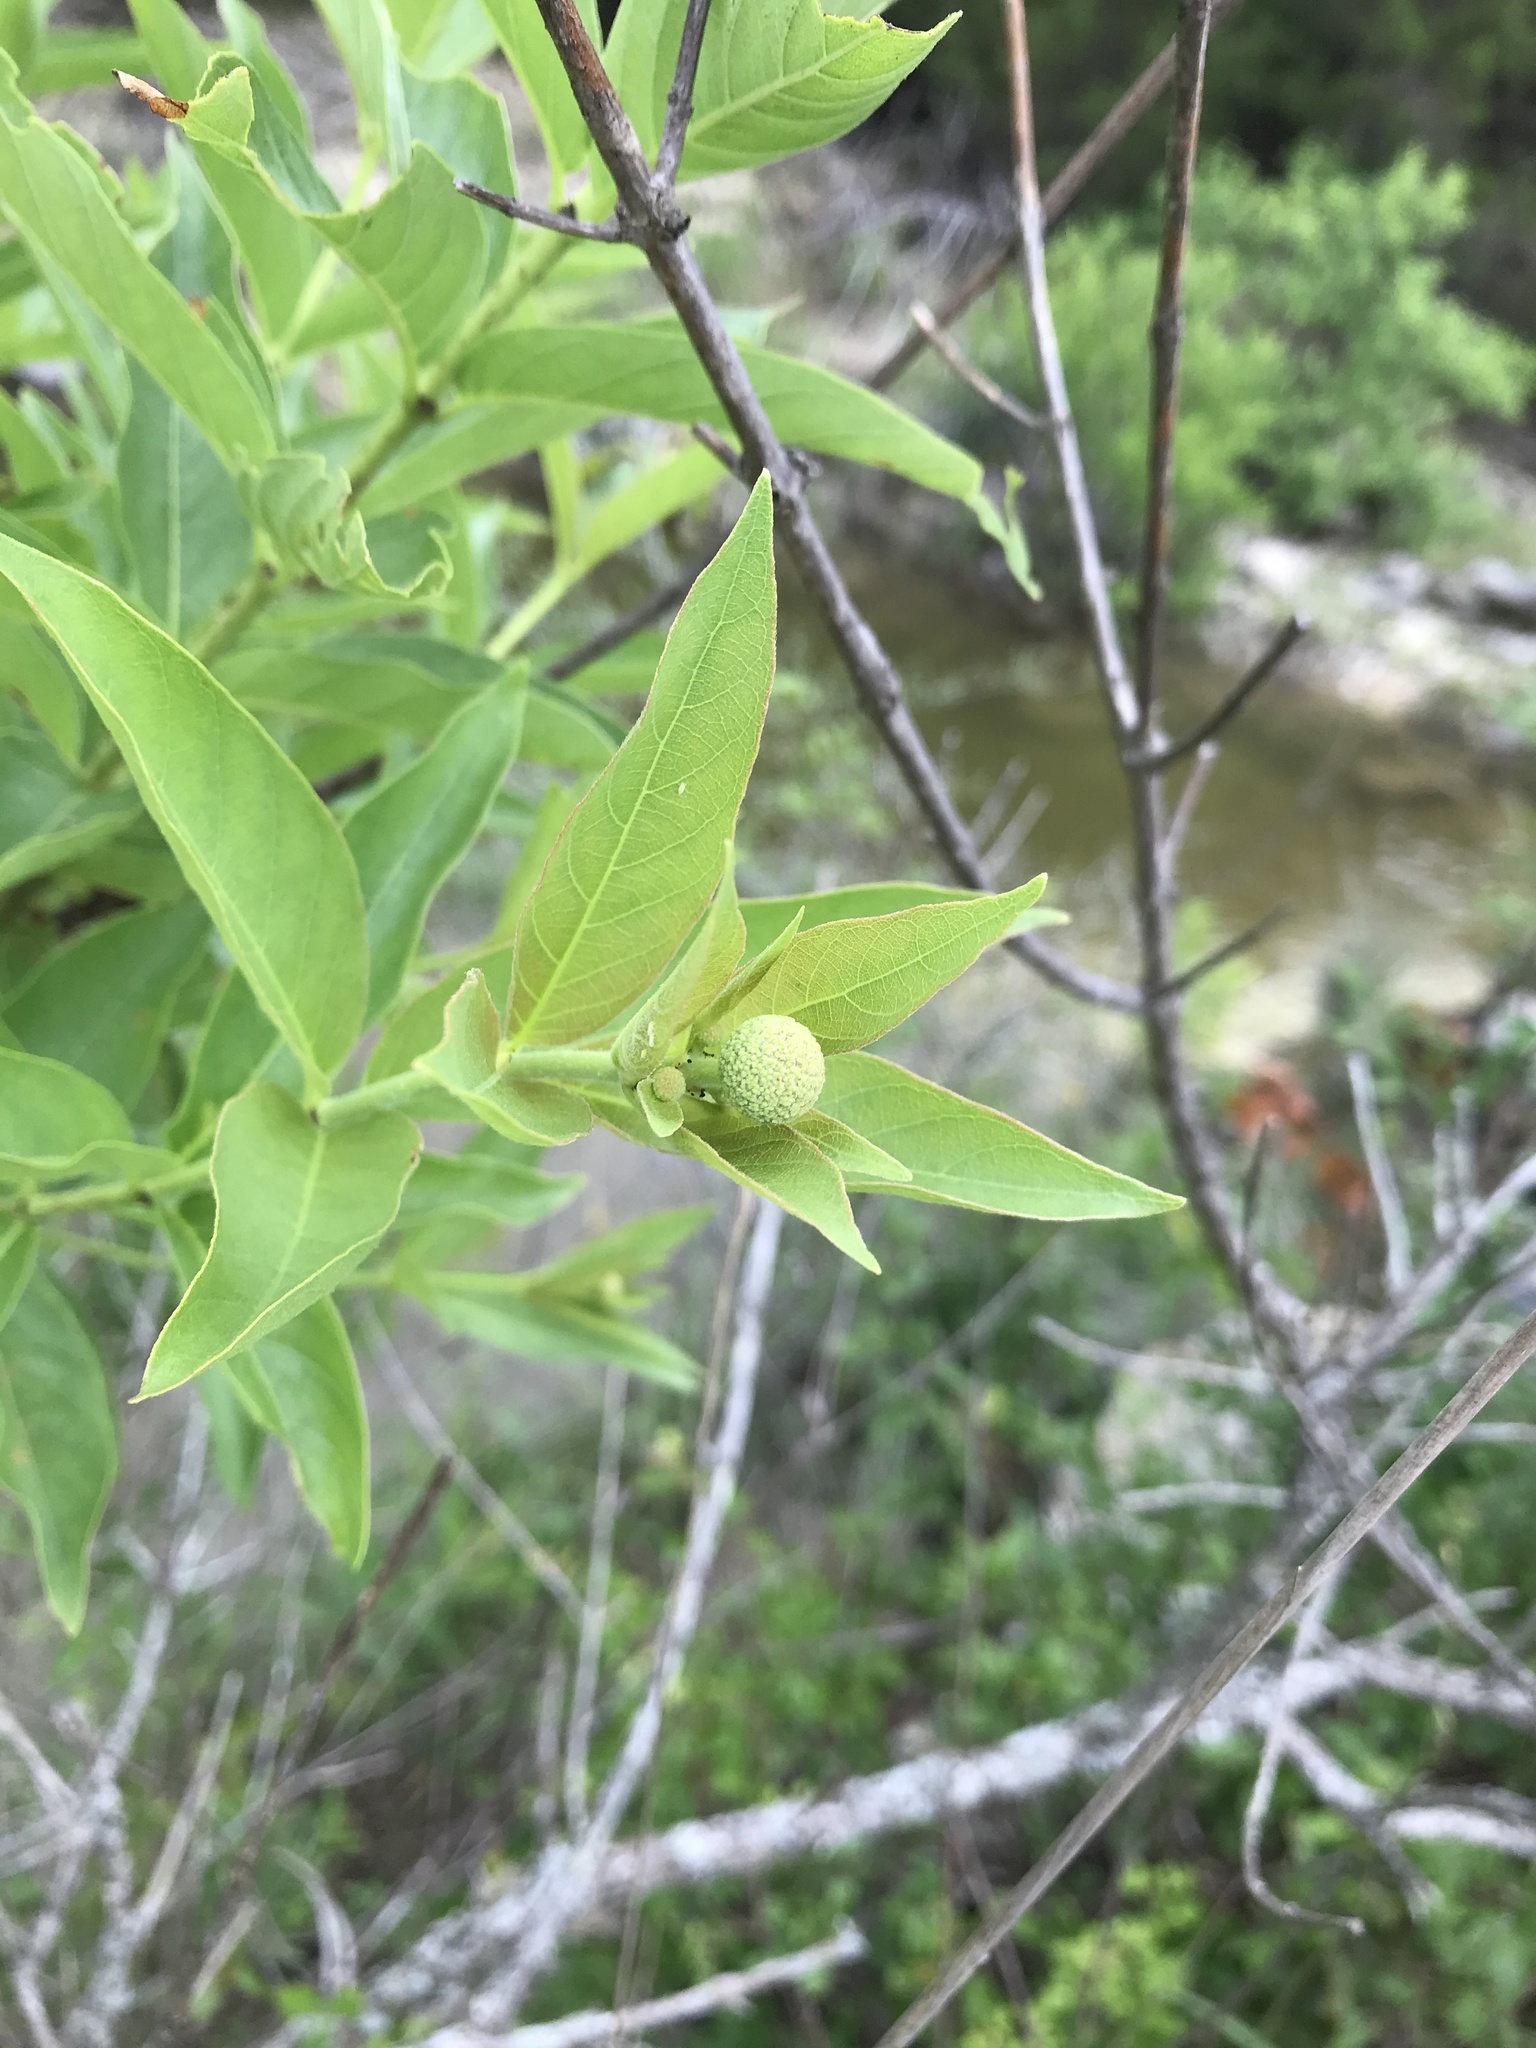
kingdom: Plantae
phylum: Tracheophyta
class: Magnoliopsida
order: Gentianales
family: Rubiaceae
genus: Cephalanthus
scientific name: Cephalanthus occidentalis
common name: Button-willow
